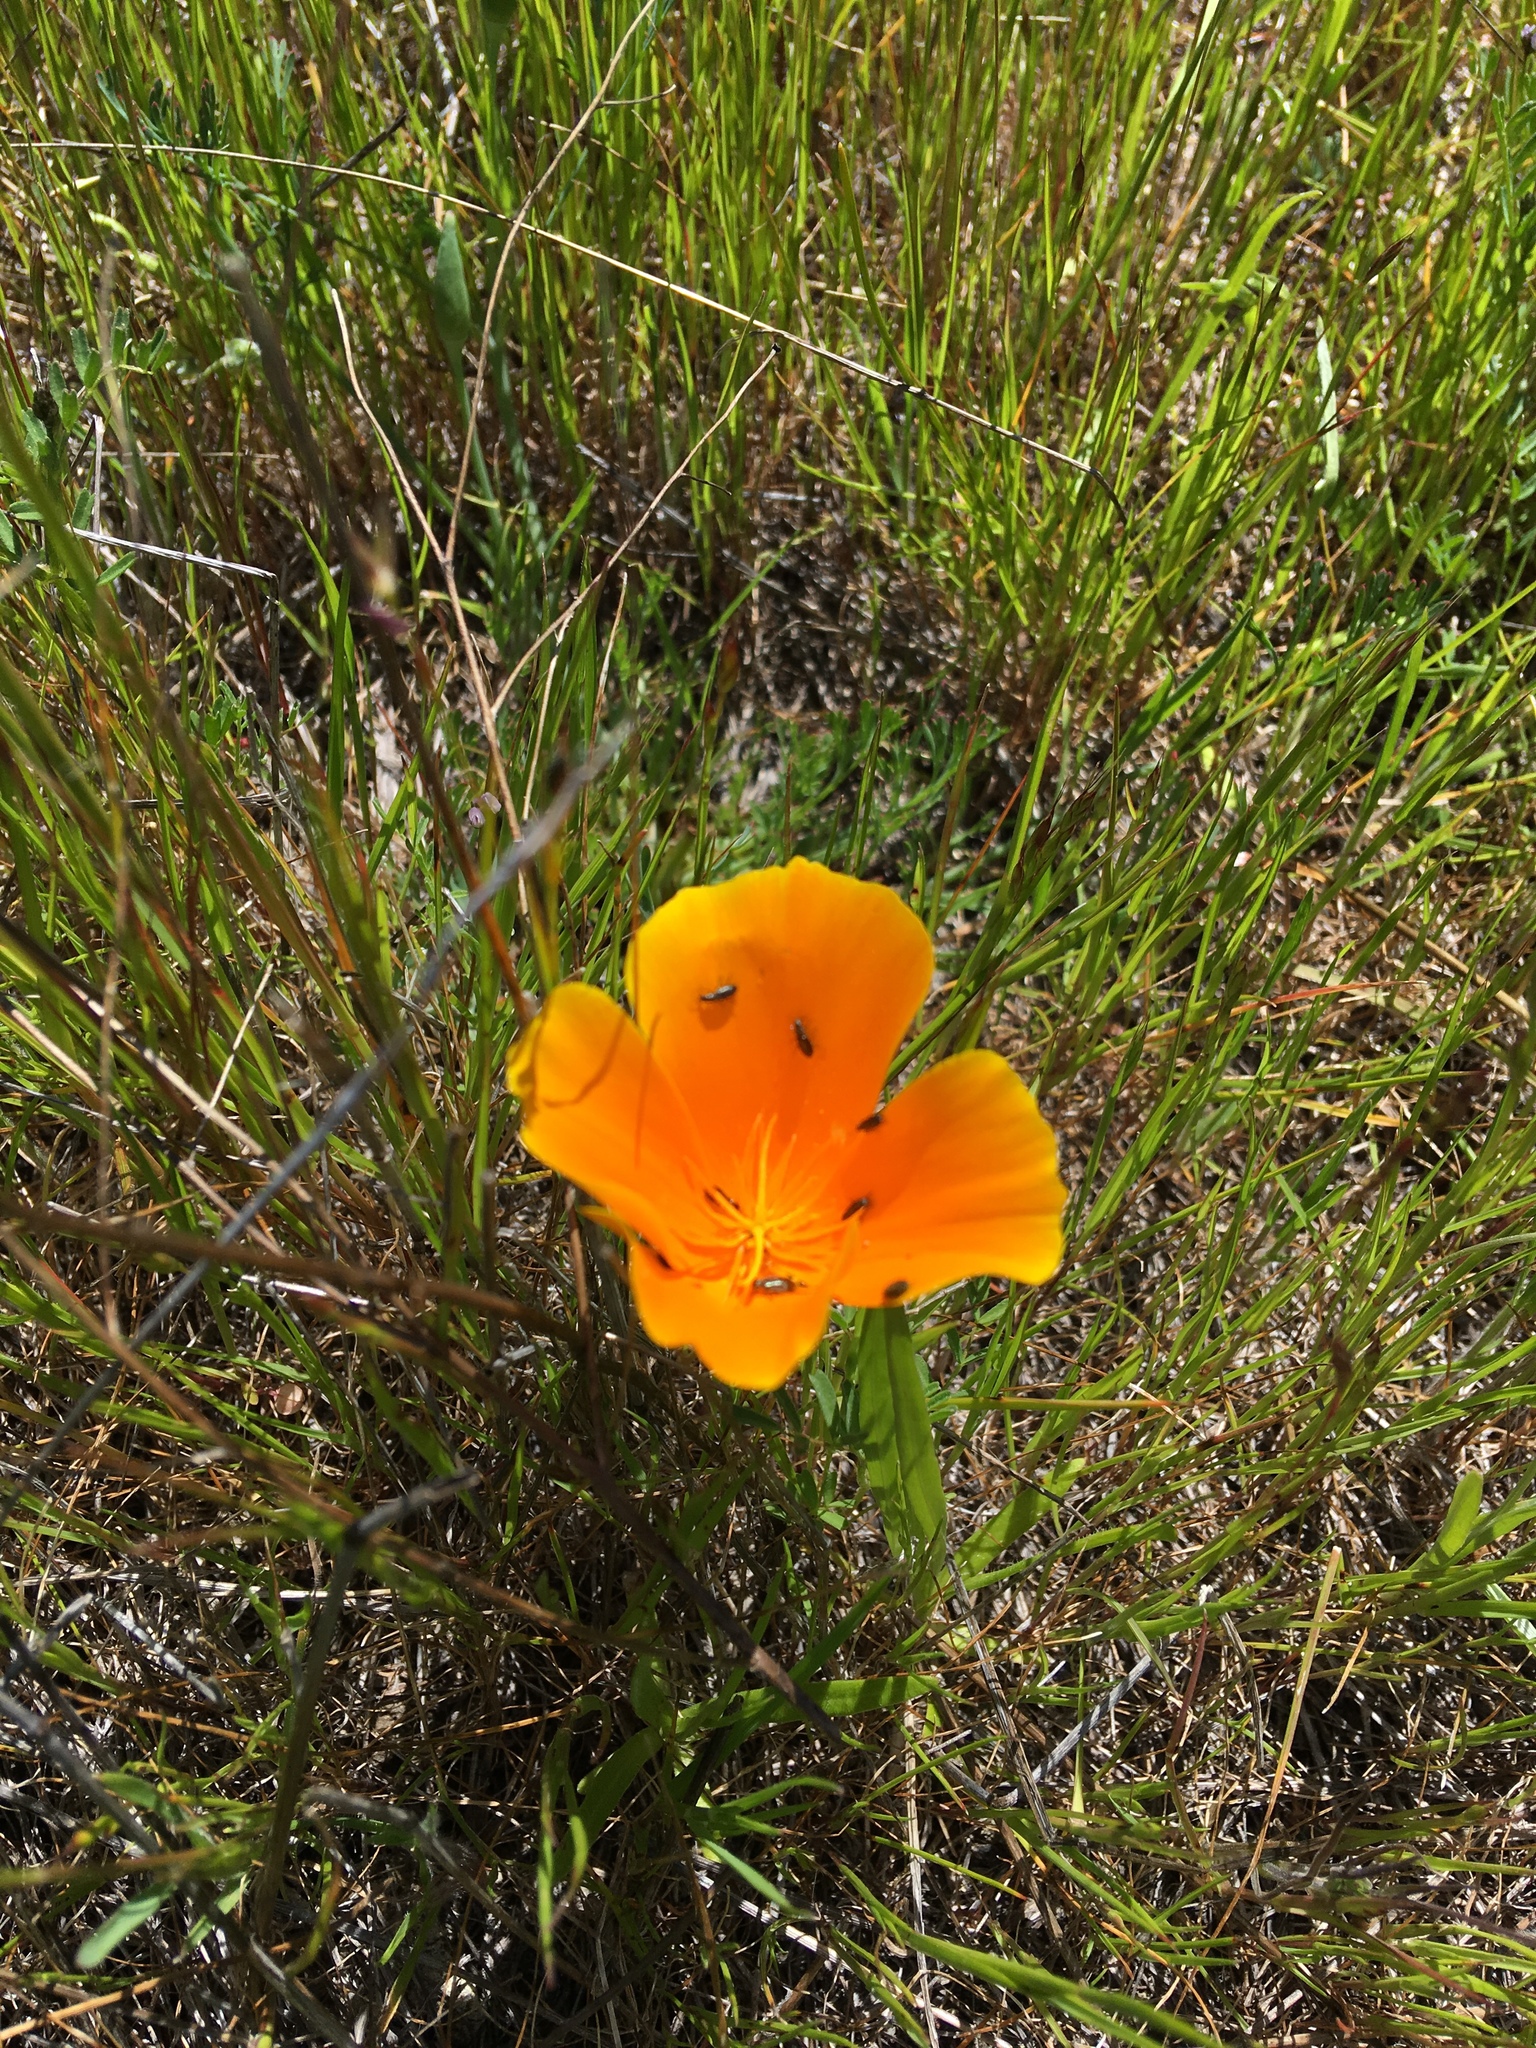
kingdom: Plantae
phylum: Tracheophyta
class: Magnoliopsida
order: Ranunculales
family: Papaveraceae
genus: Eschscholzia
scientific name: Eschscholzia californica
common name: California poppy
